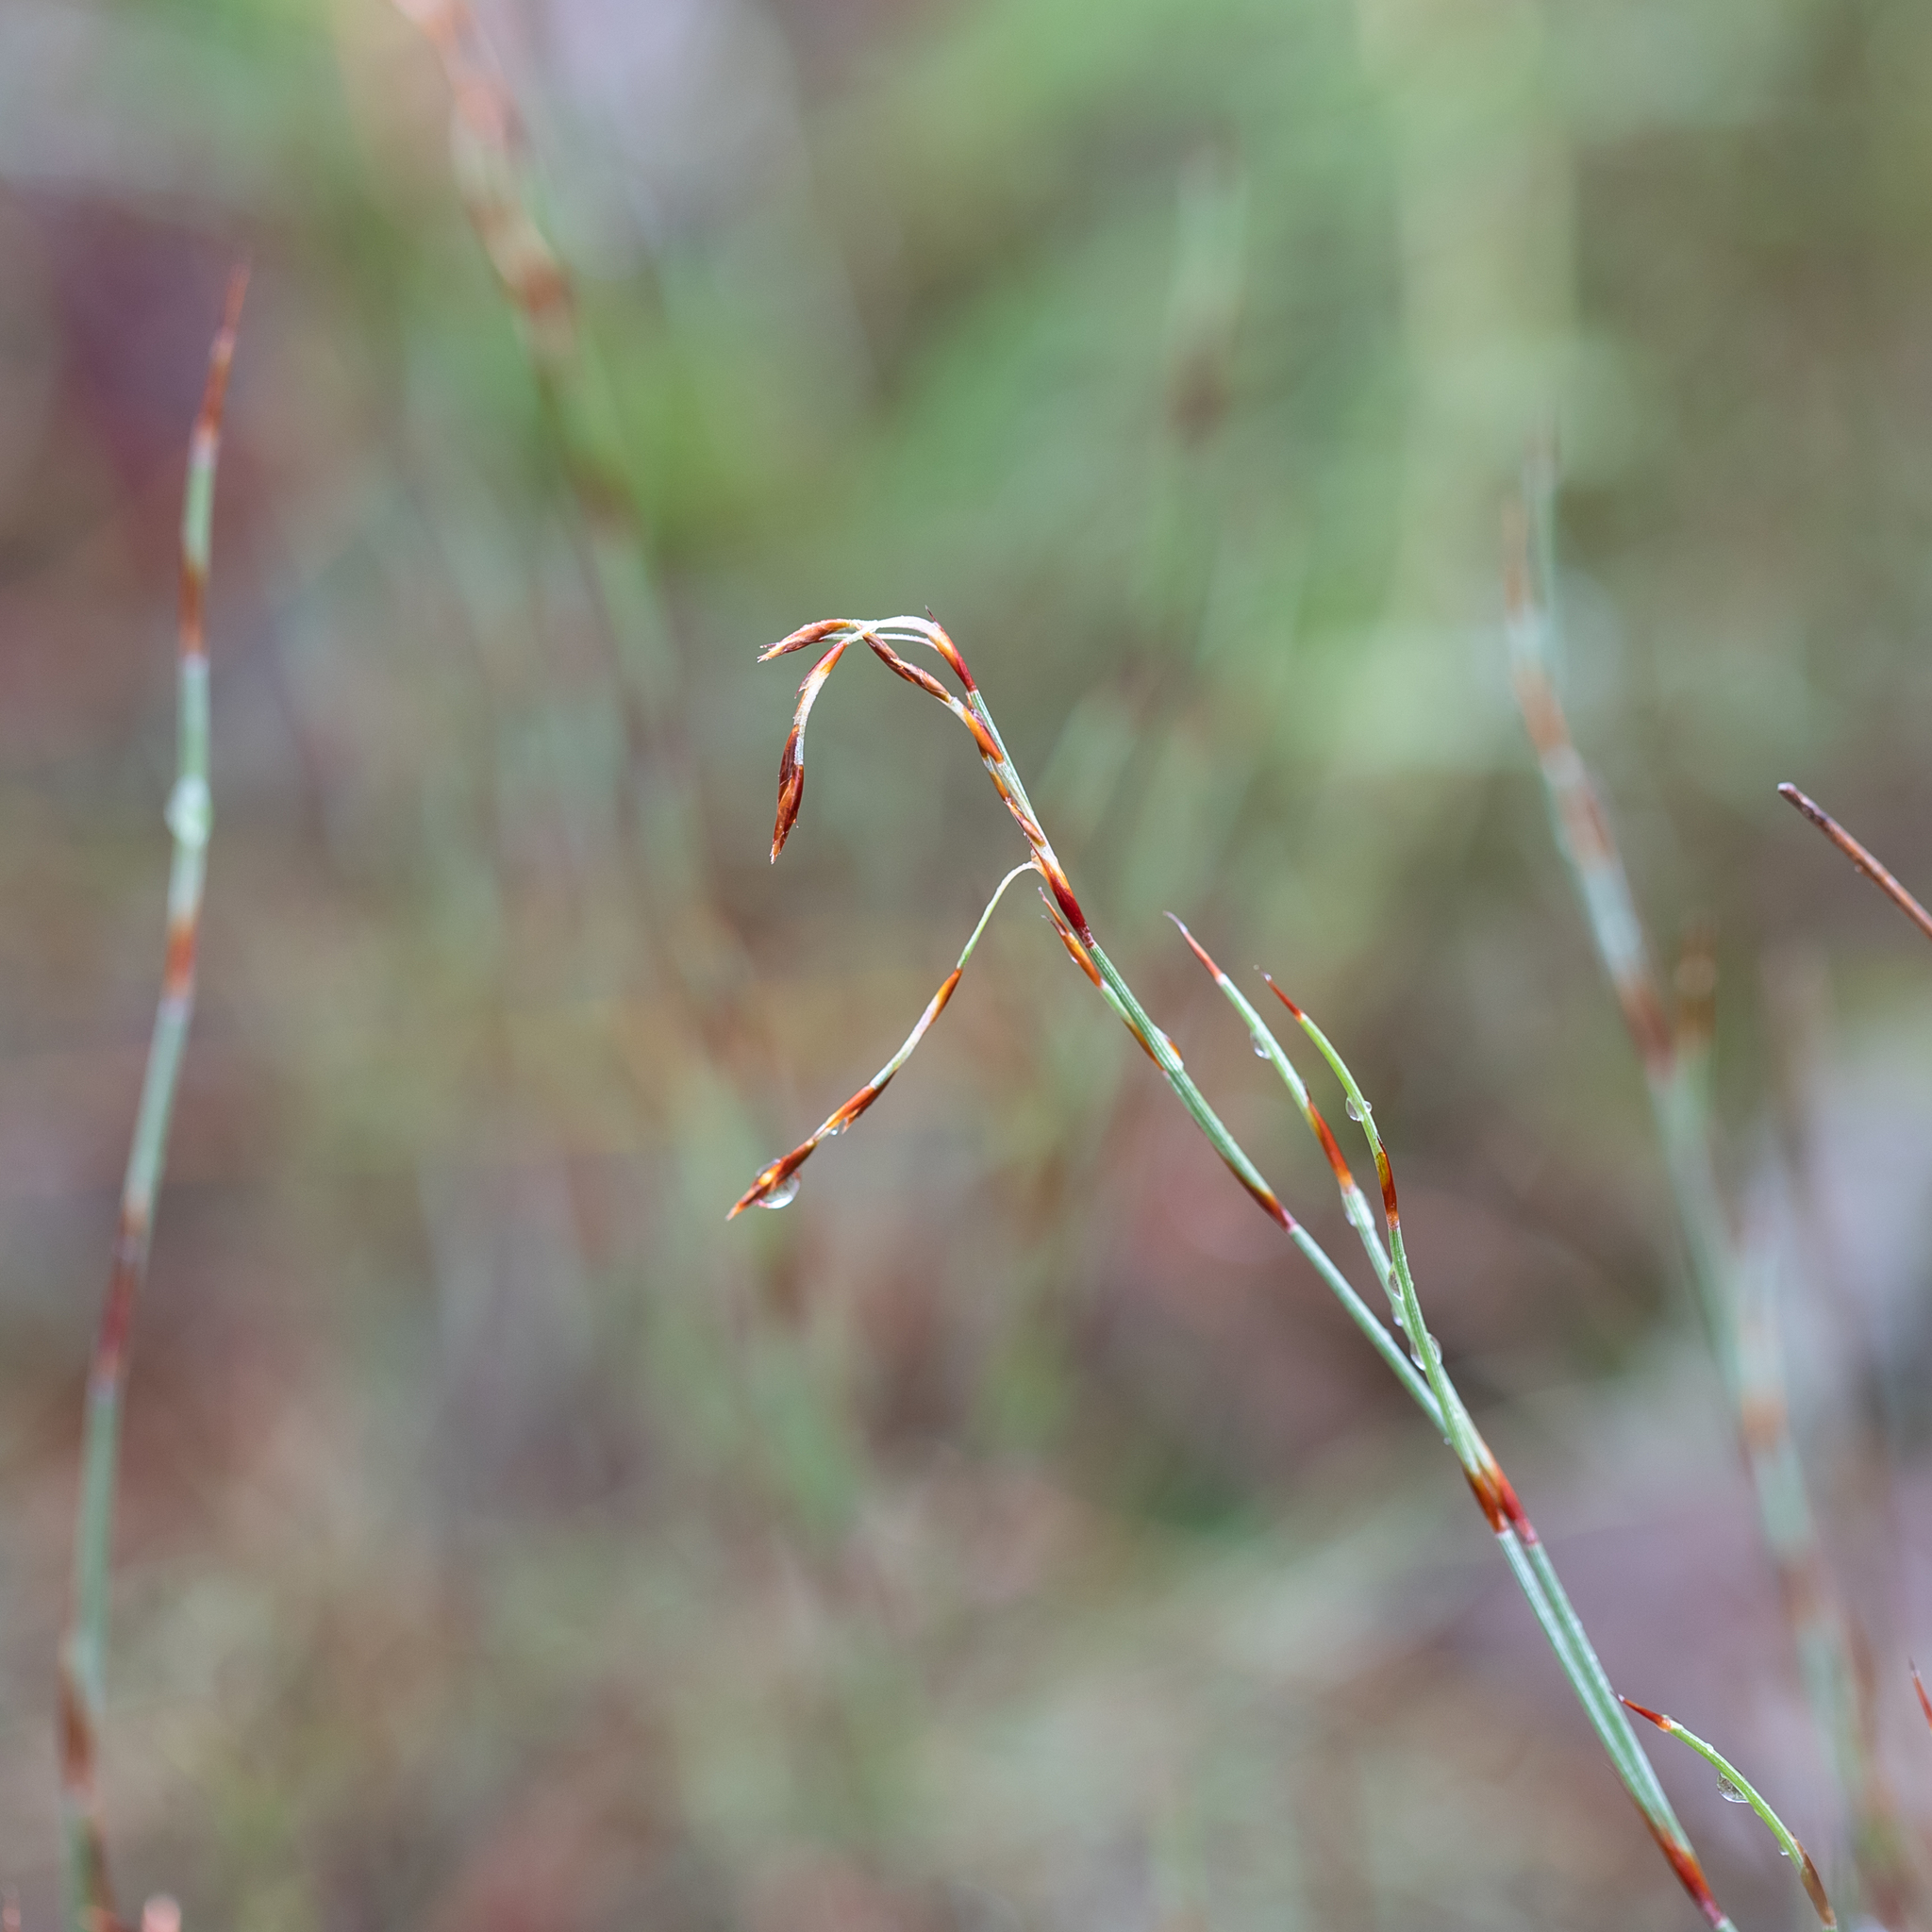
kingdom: Plantae
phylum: Tracheophyta
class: Liliopsida
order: Poales
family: Restionaceae
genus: Hypolaena
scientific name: Hypolaena fastigiata
